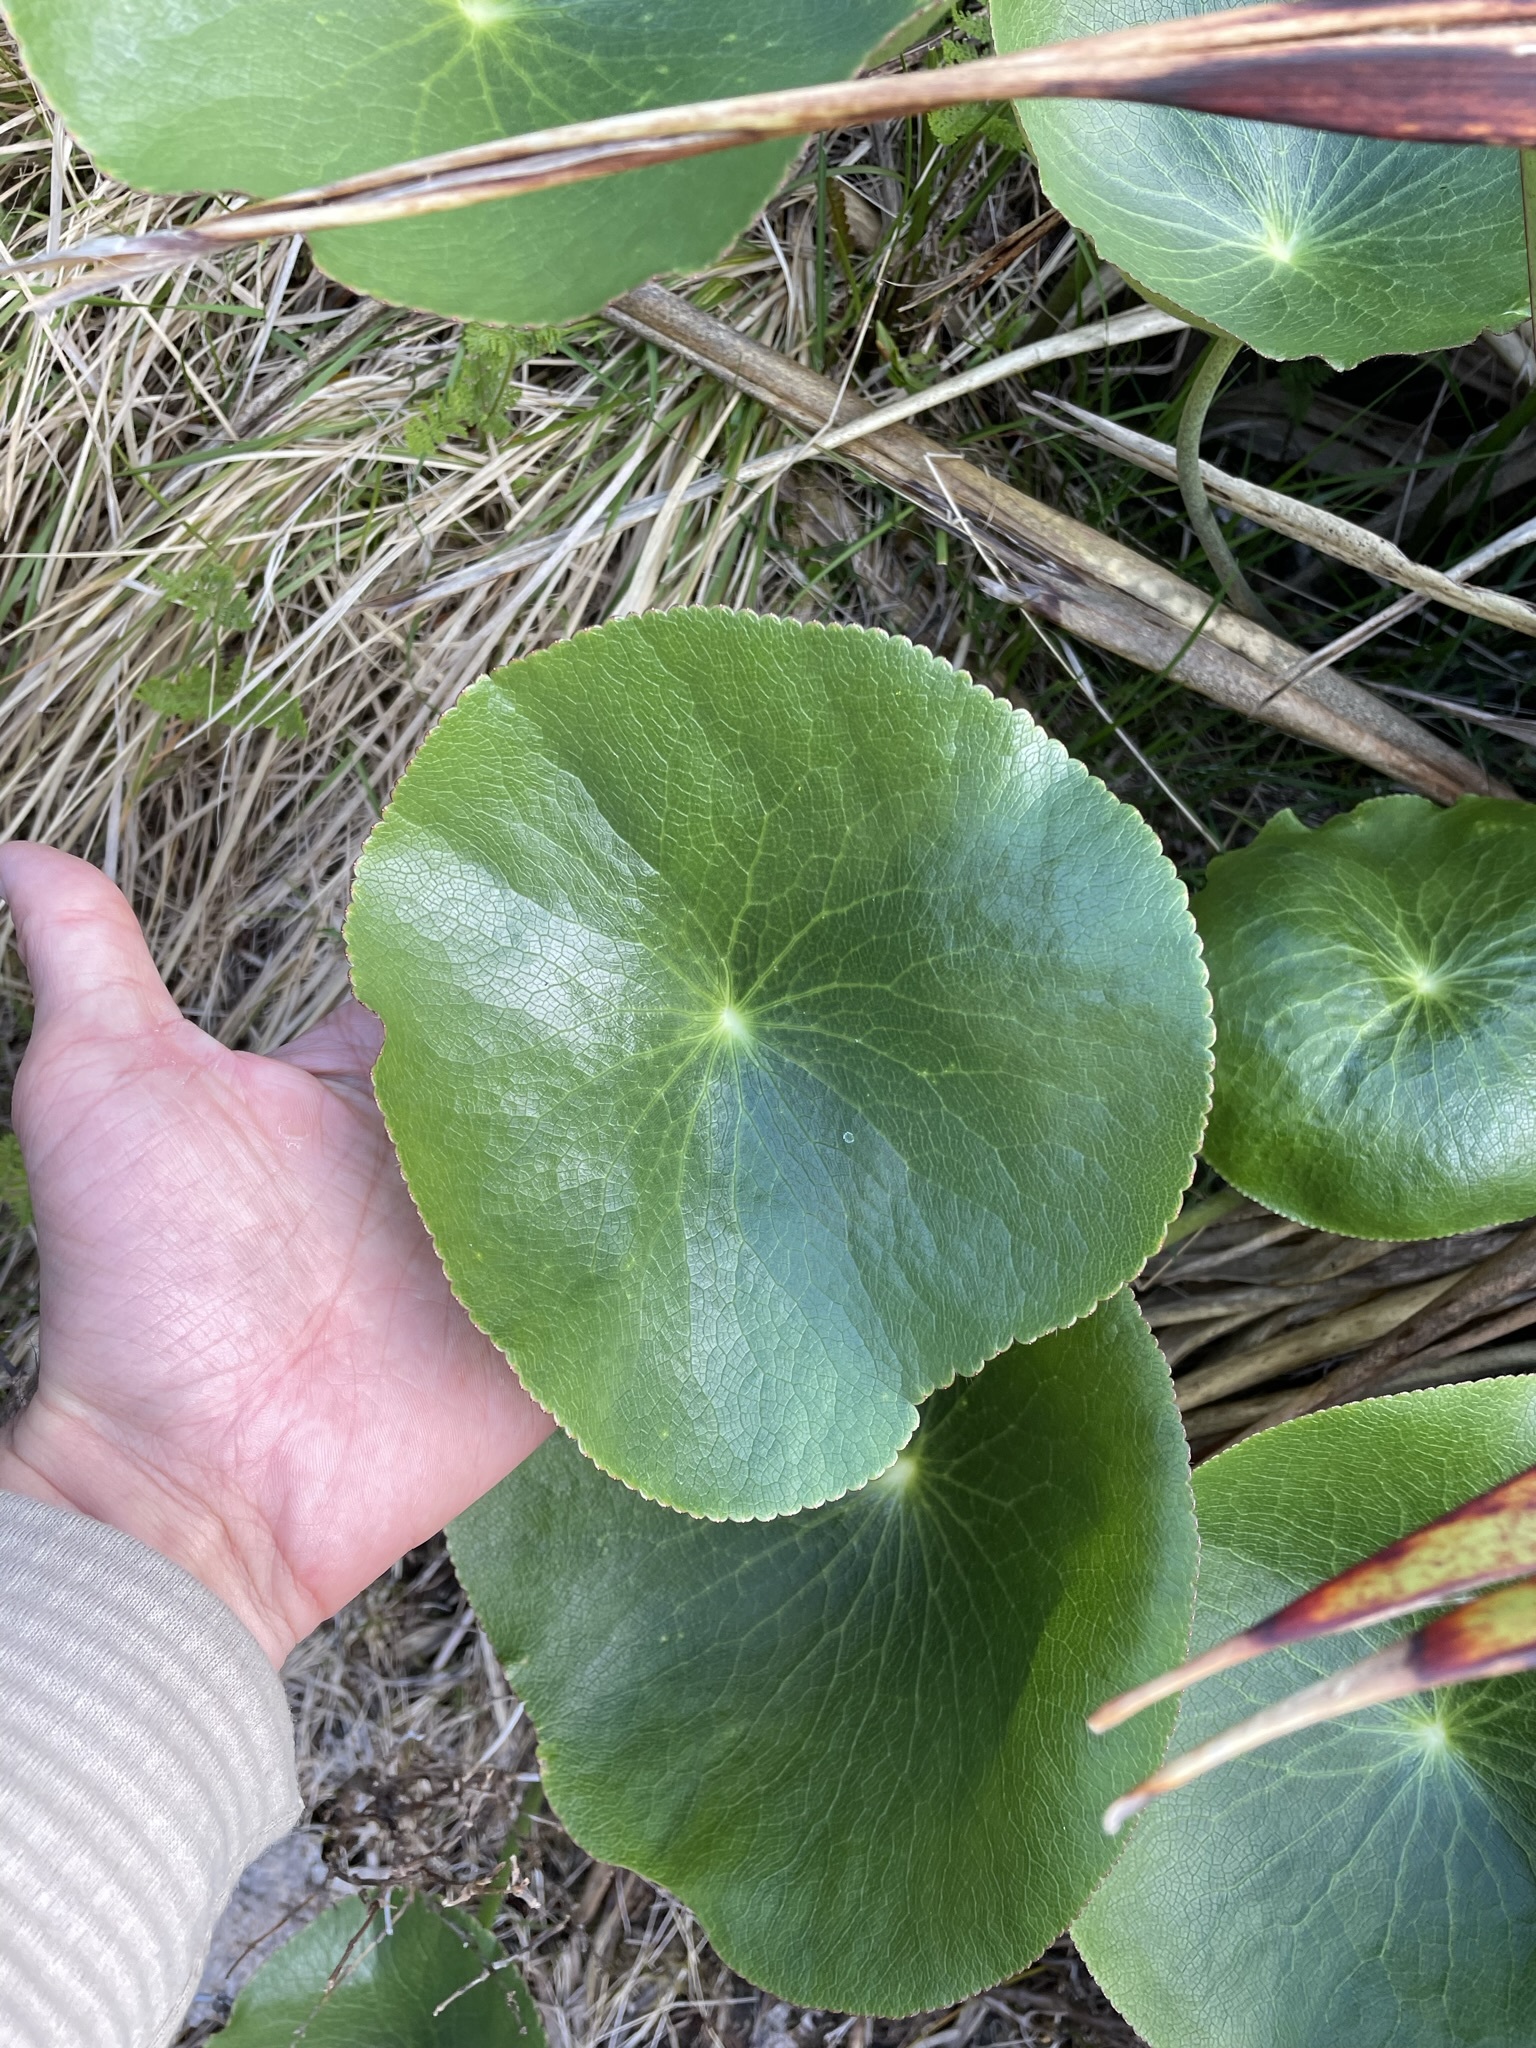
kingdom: Plantae
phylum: Tracheophyta
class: Magnoliopsida
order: Ranunculales
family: Ranunculaceae
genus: Ranunculus
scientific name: Ranunculus lyallii
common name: Mountain-lily
